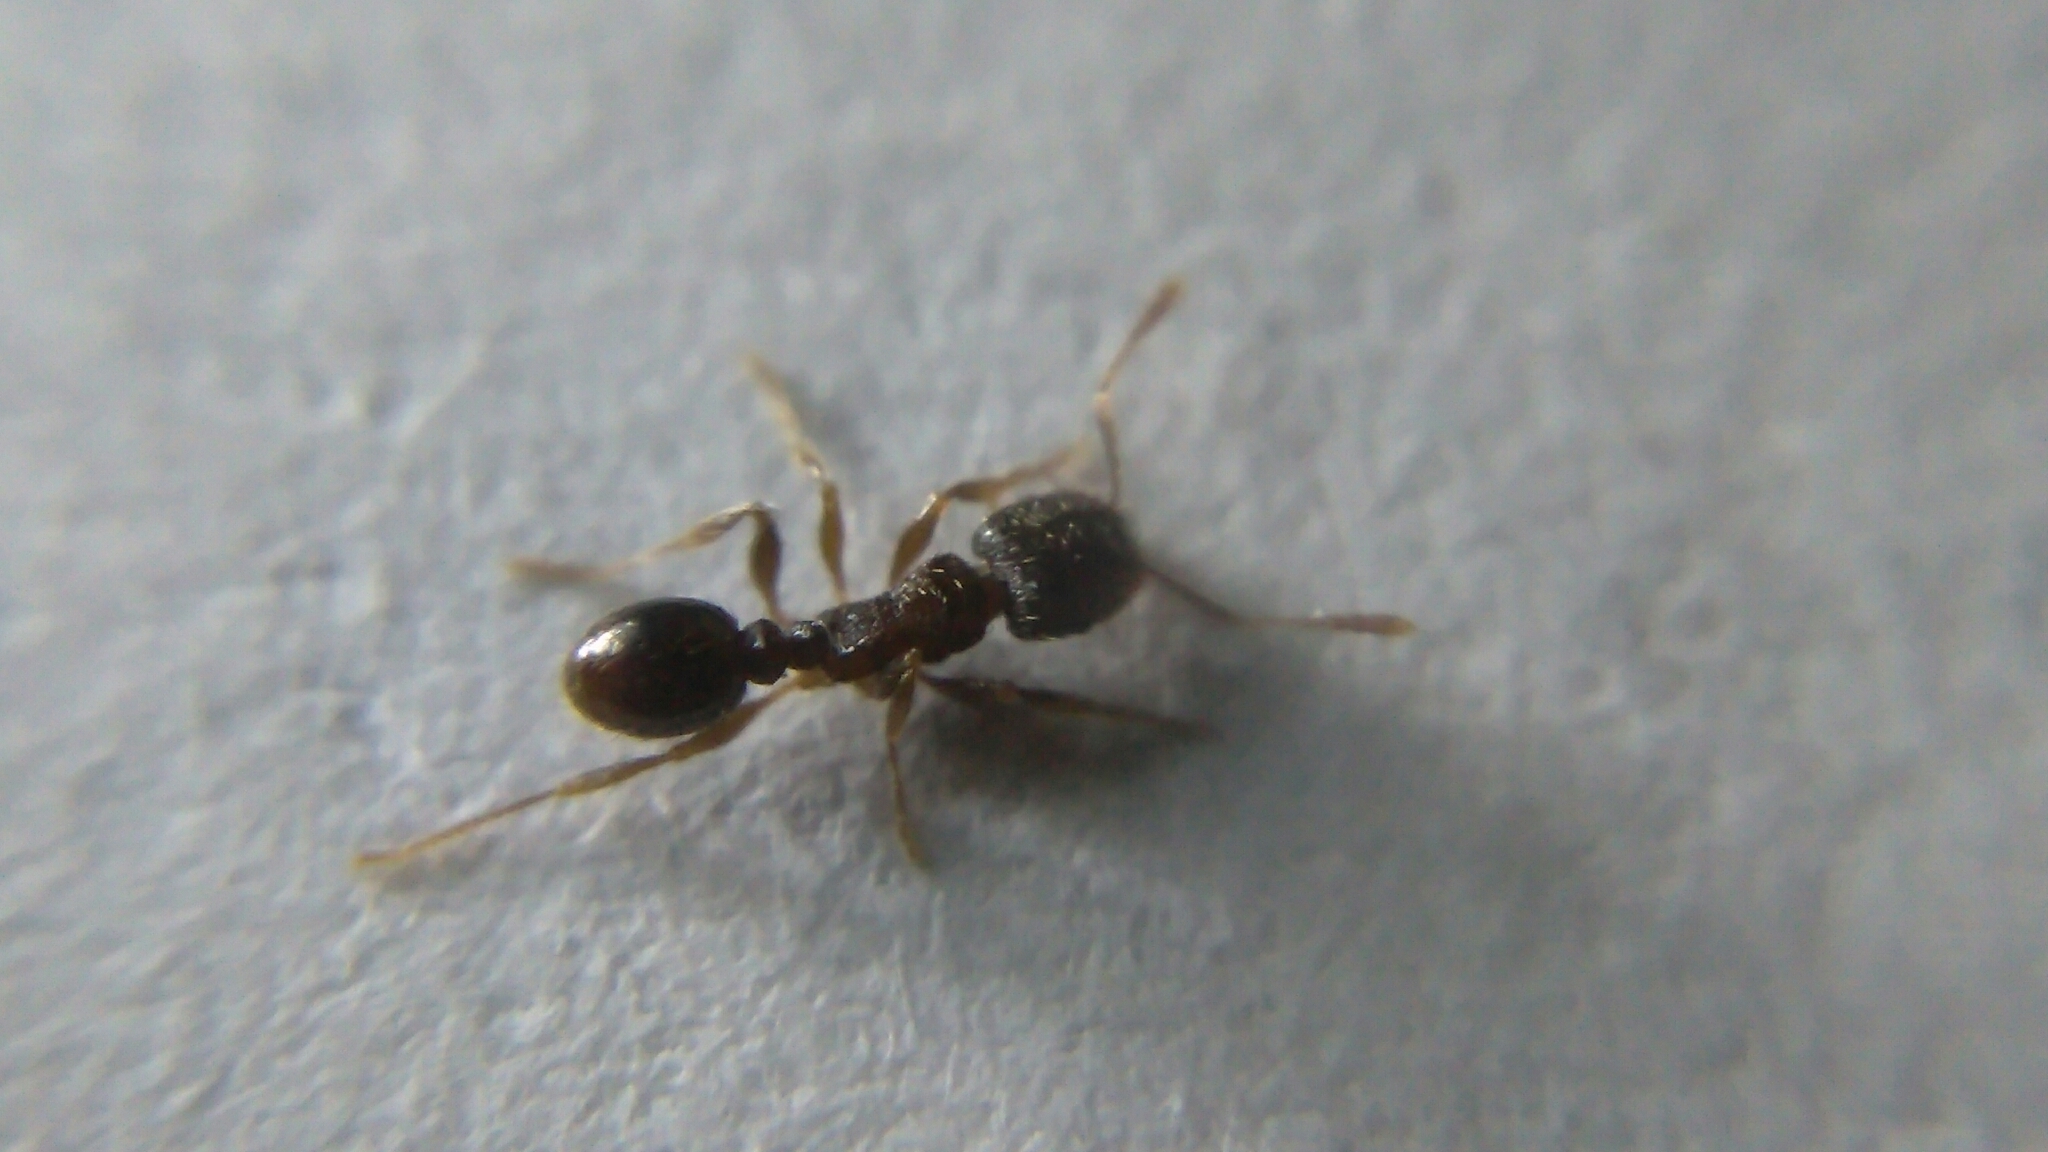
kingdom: Animalia
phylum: Arthropoda
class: Insecta
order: Hymenoptera
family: Formicidae
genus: Tetramorium
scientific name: Tetramorium immigrans
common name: Pavement ant
